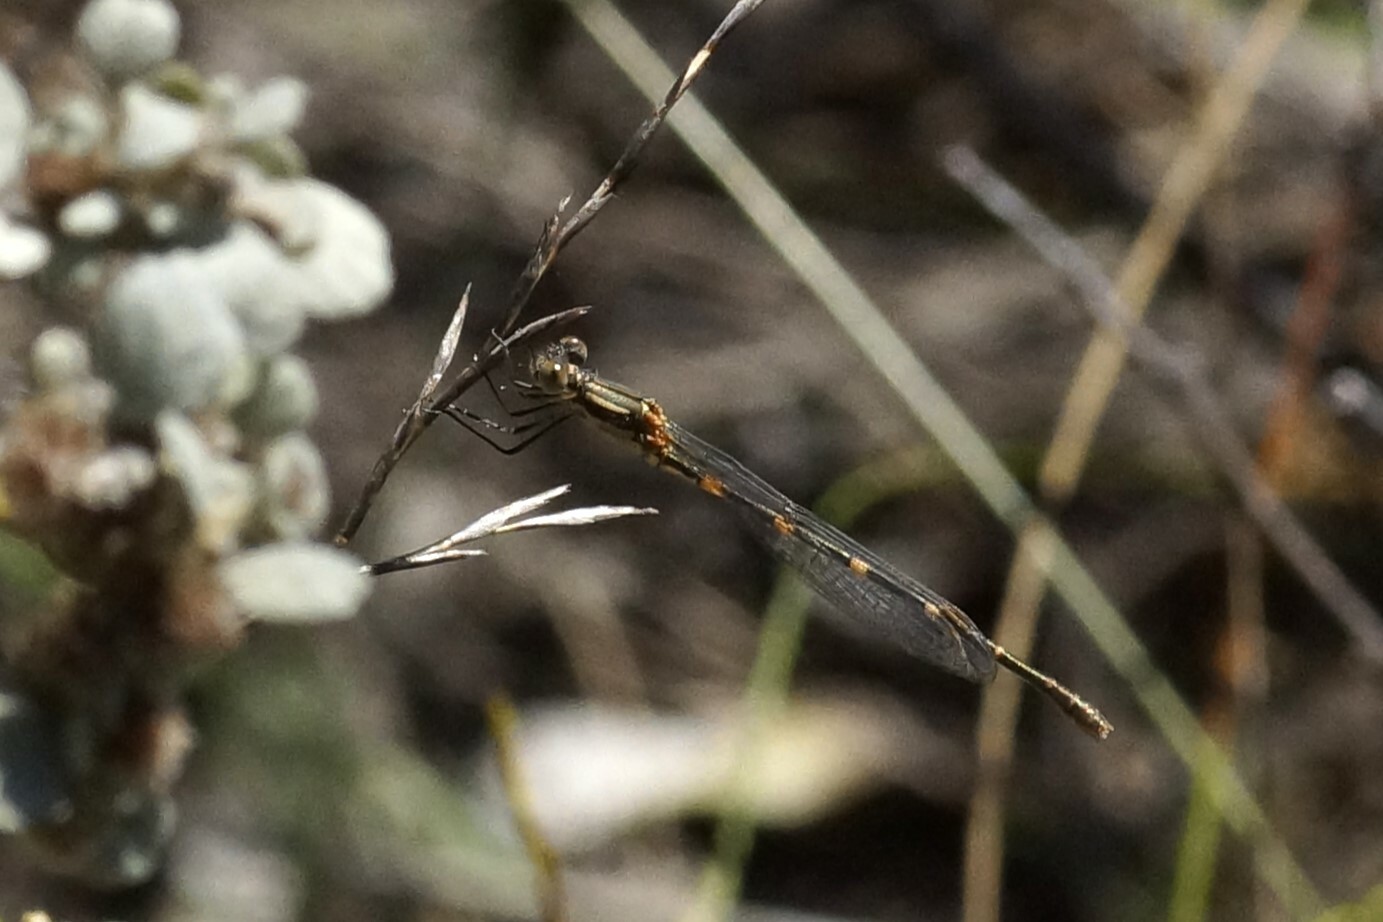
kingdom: Animalia
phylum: Arthropoda
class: Insecta
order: Odonata
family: Lestidae
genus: Austrolestes
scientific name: Austrolestes leda
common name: Wandering ringtail
